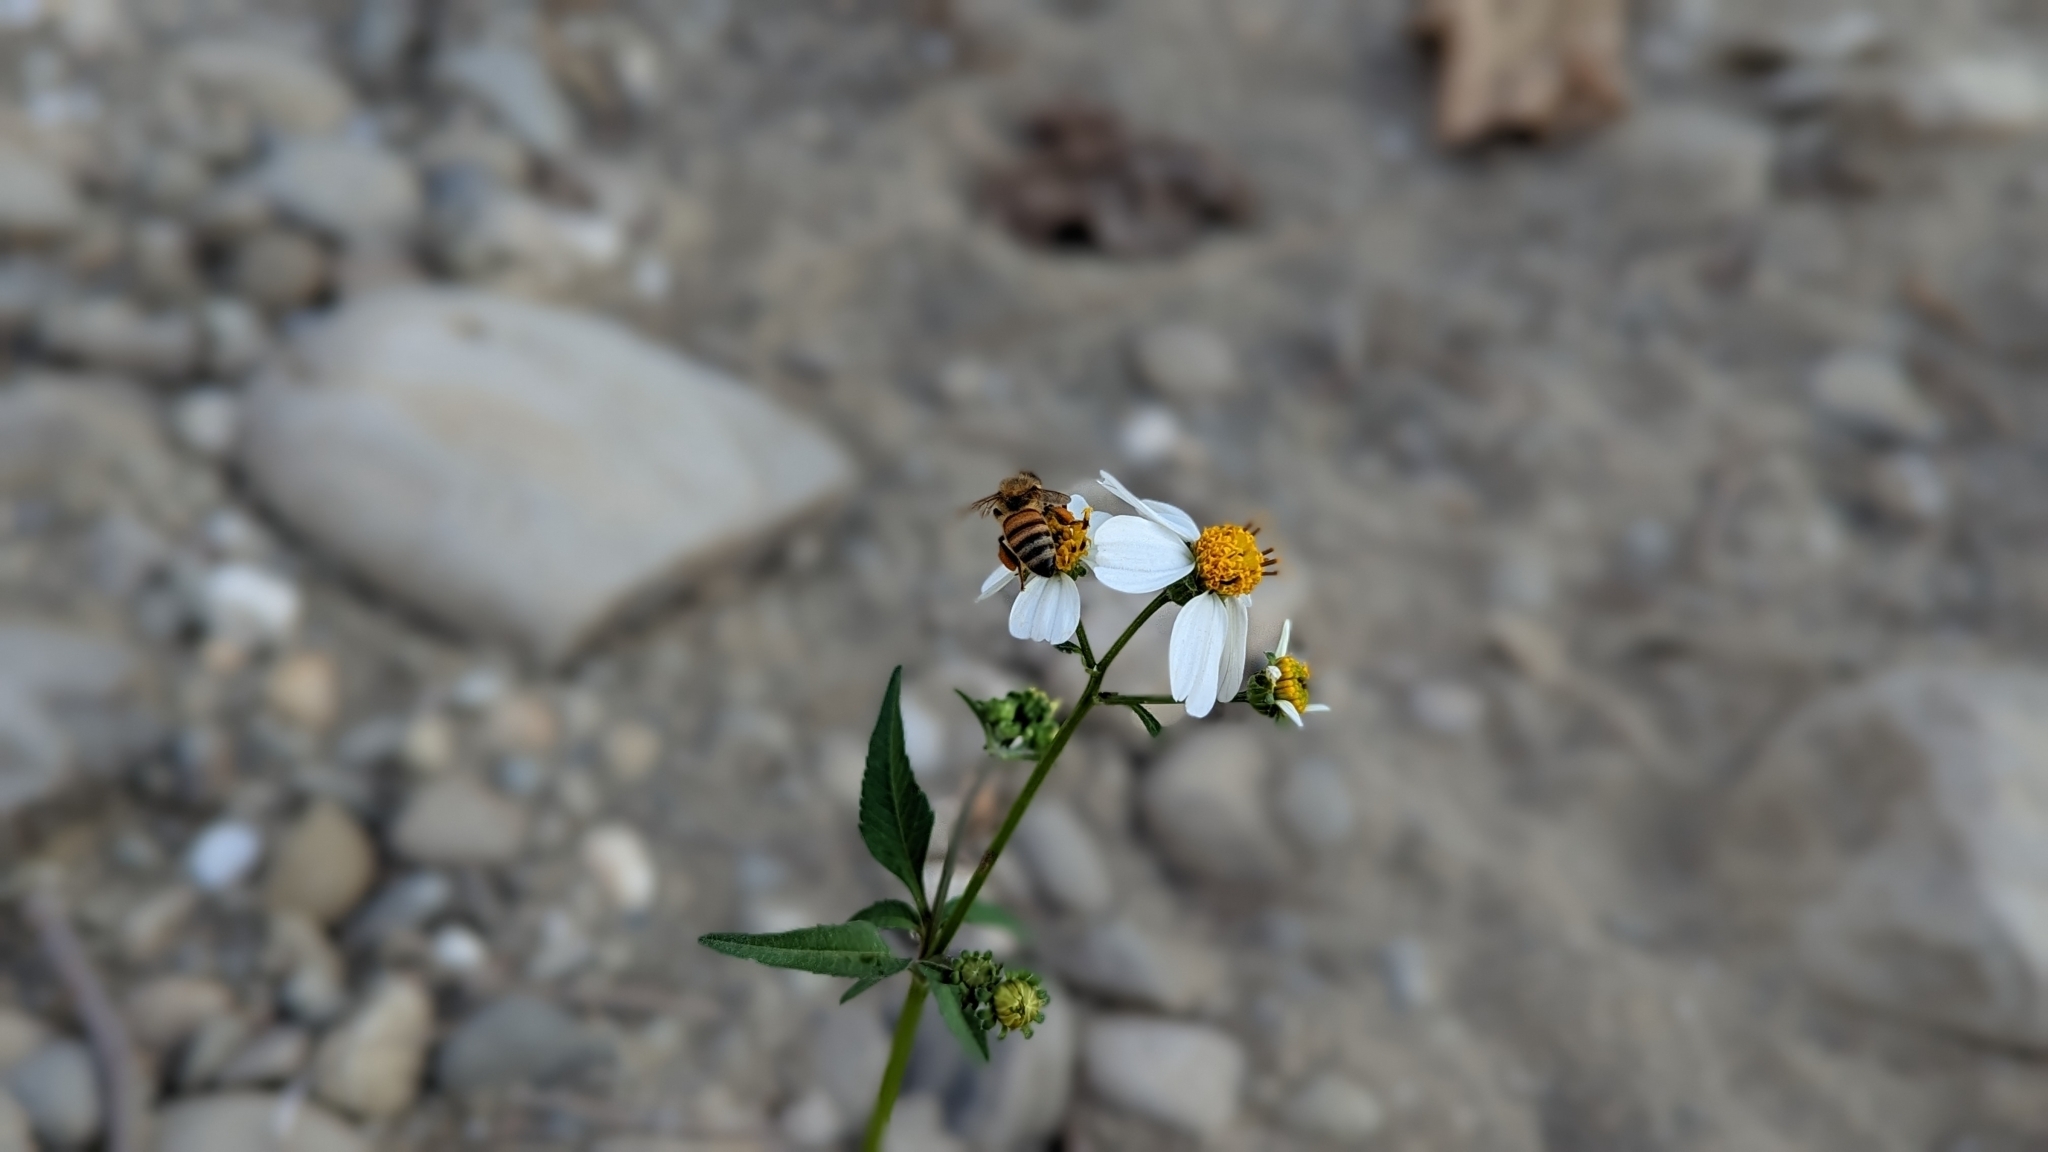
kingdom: Animalia
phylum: Arthropoda
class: Insecta
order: Hymenoptera
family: Apidae
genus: Apis
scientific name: Apis mellifera
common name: Honey bee
